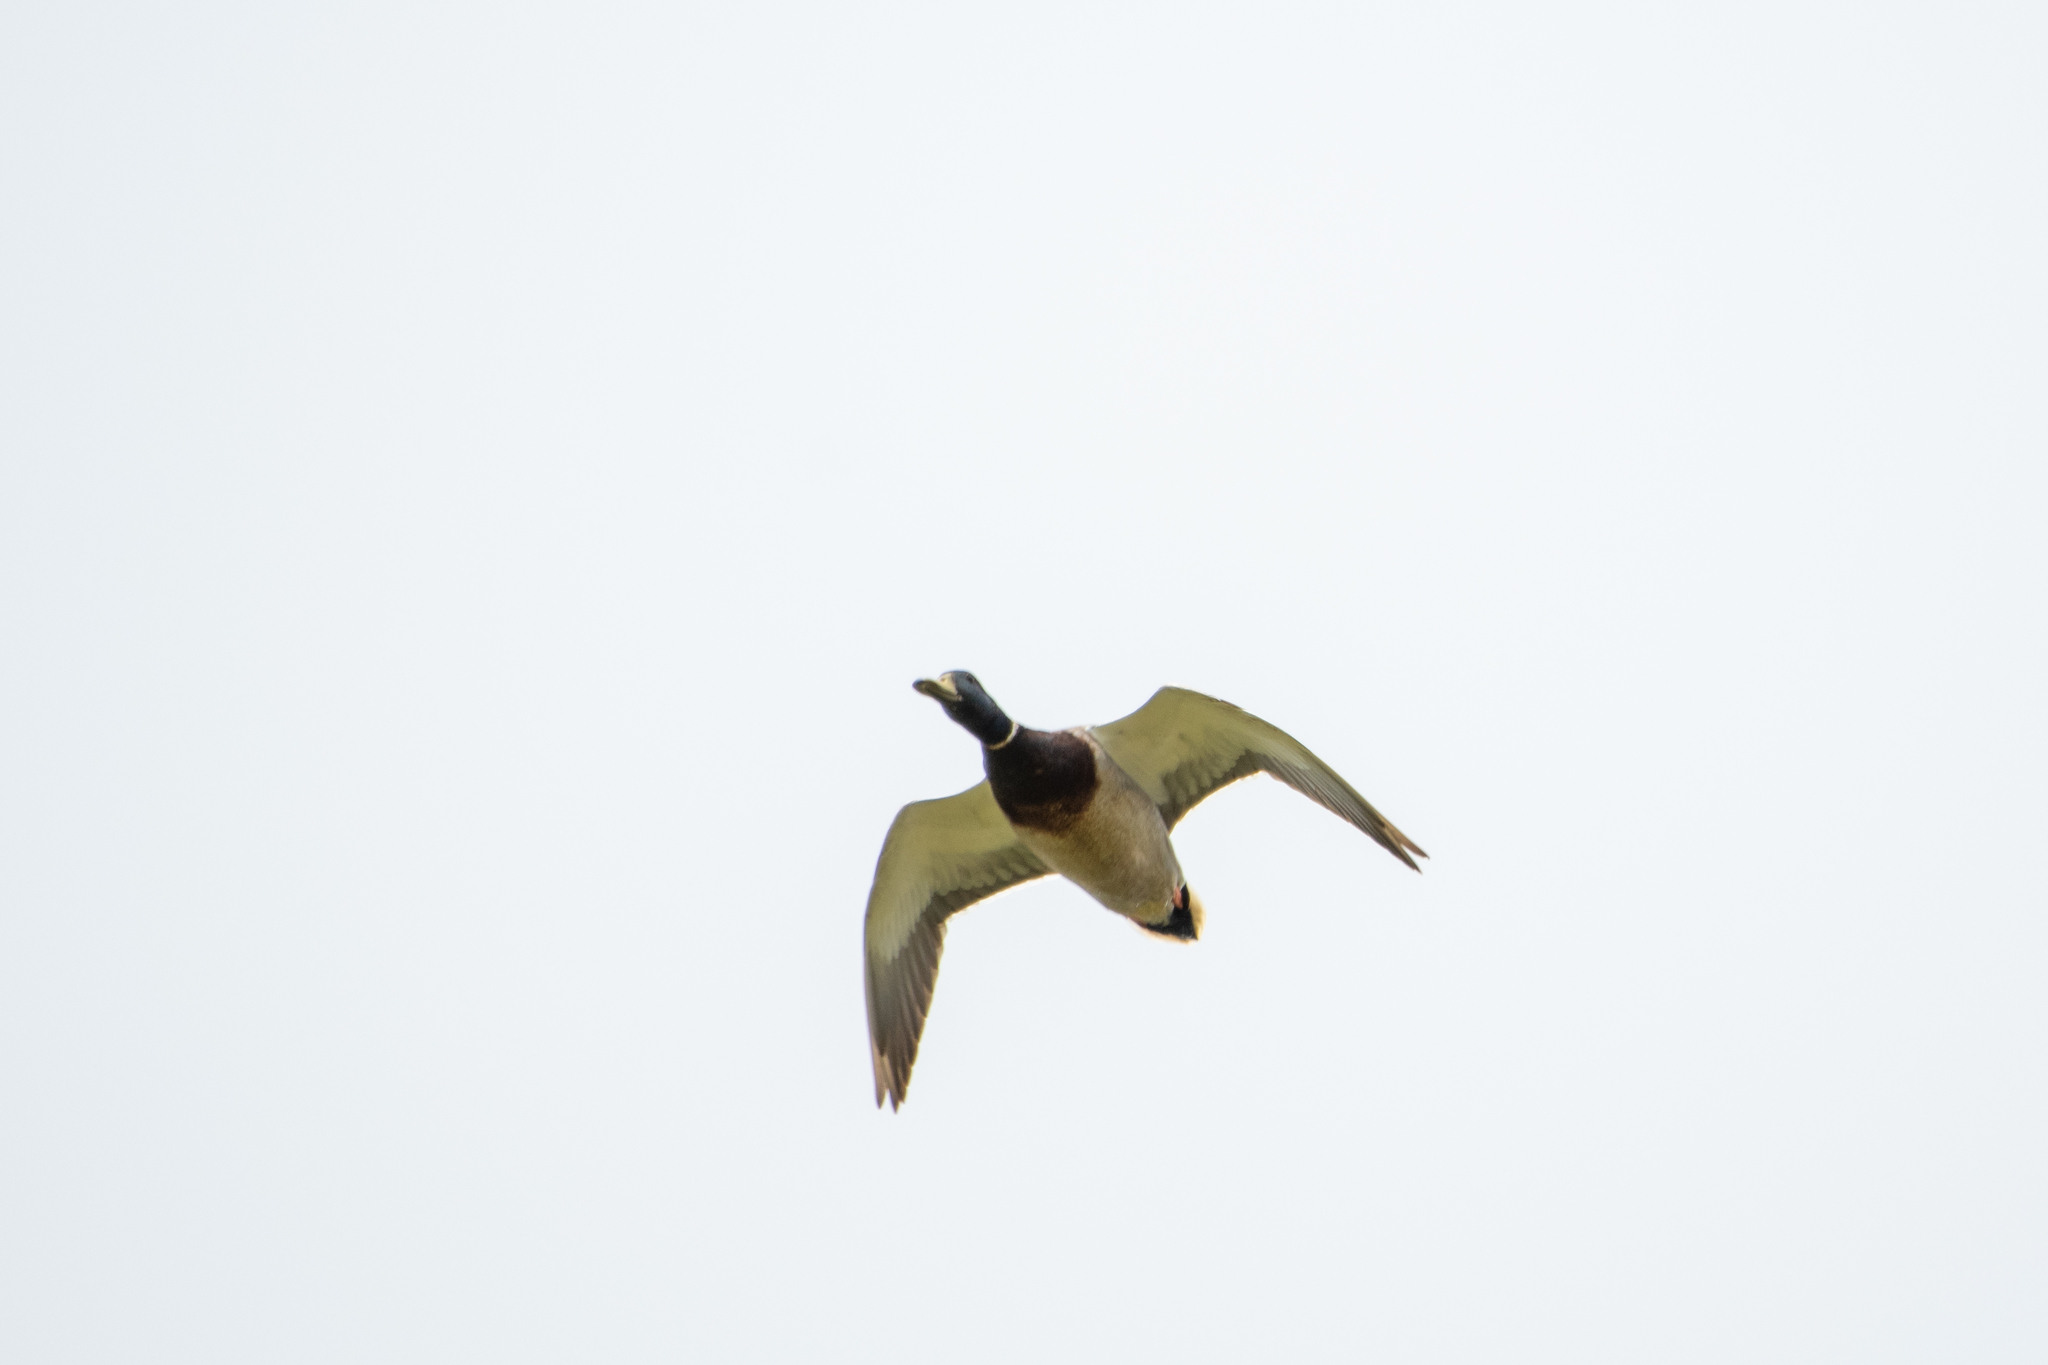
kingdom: Animalia
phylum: Chordata
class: Aves
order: Anseriformes
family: Anatidae
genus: Anas
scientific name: Anas platyrhynchos
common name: Mallard
